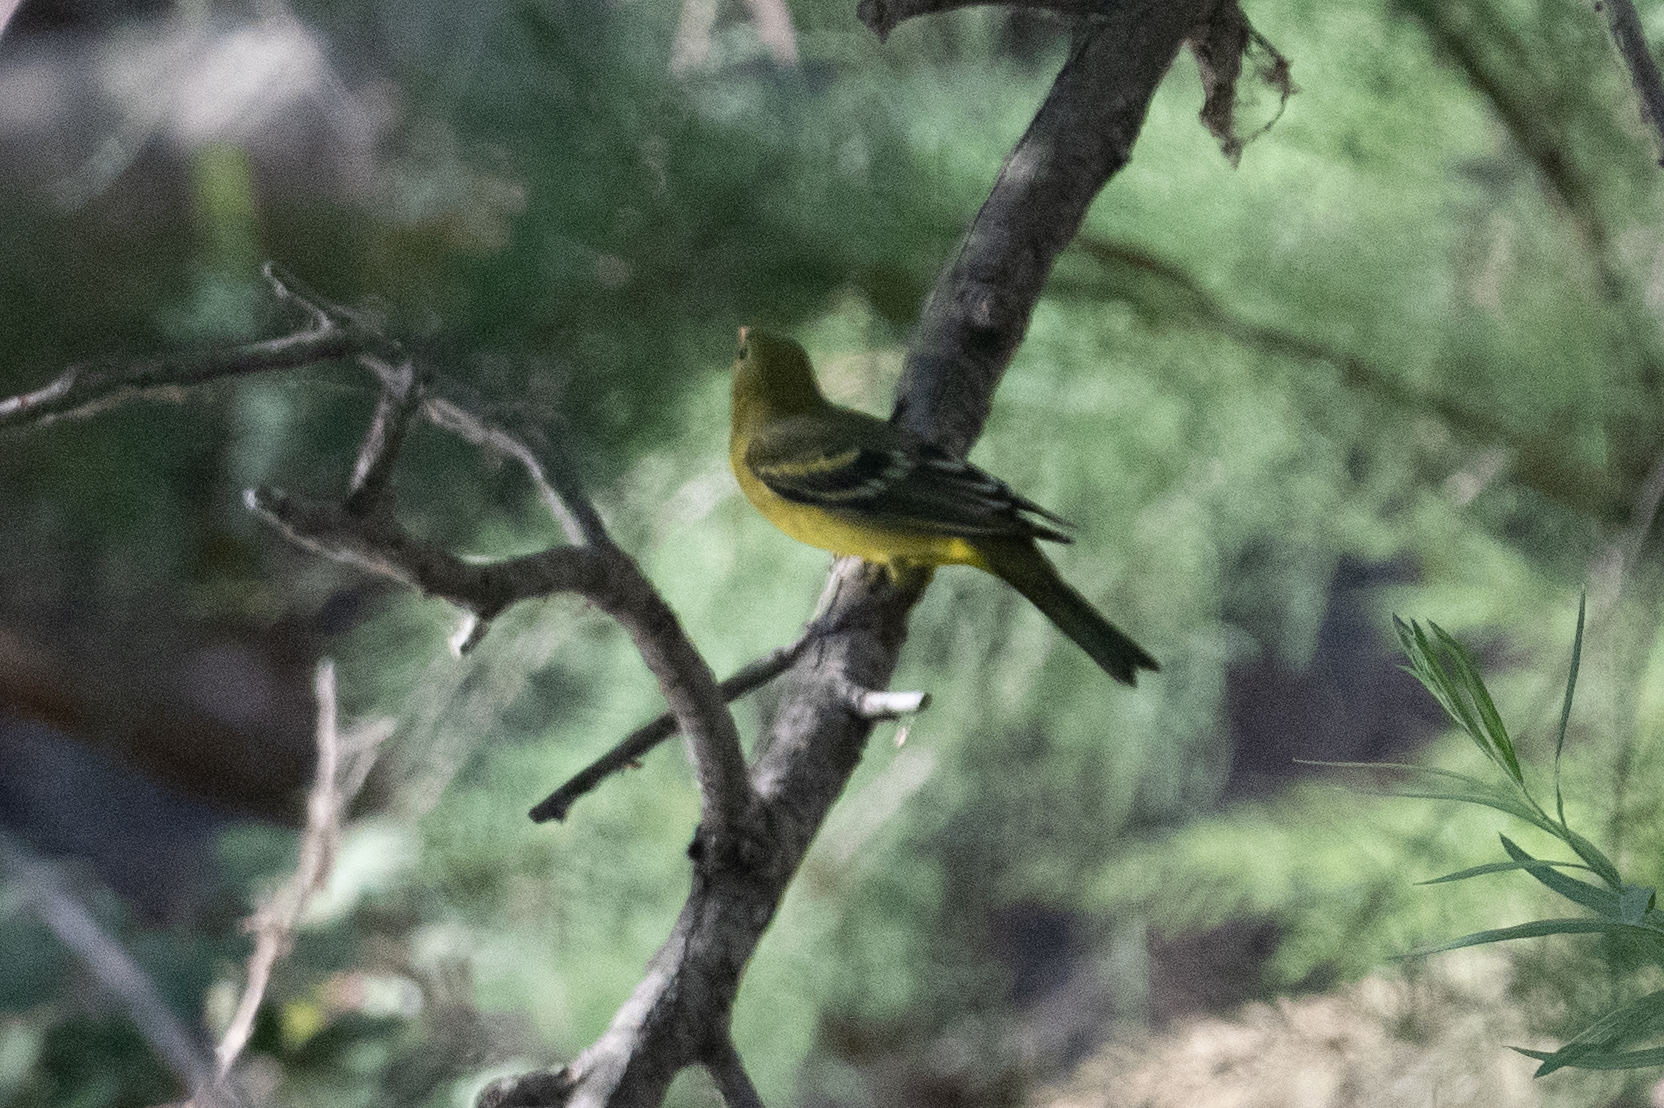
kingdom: Animalia
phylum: Chordata
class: Aves
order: Passeriformes
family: Cardinalidae
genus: Piranga
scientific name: Piranga ludoviciana
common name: Western tanager
